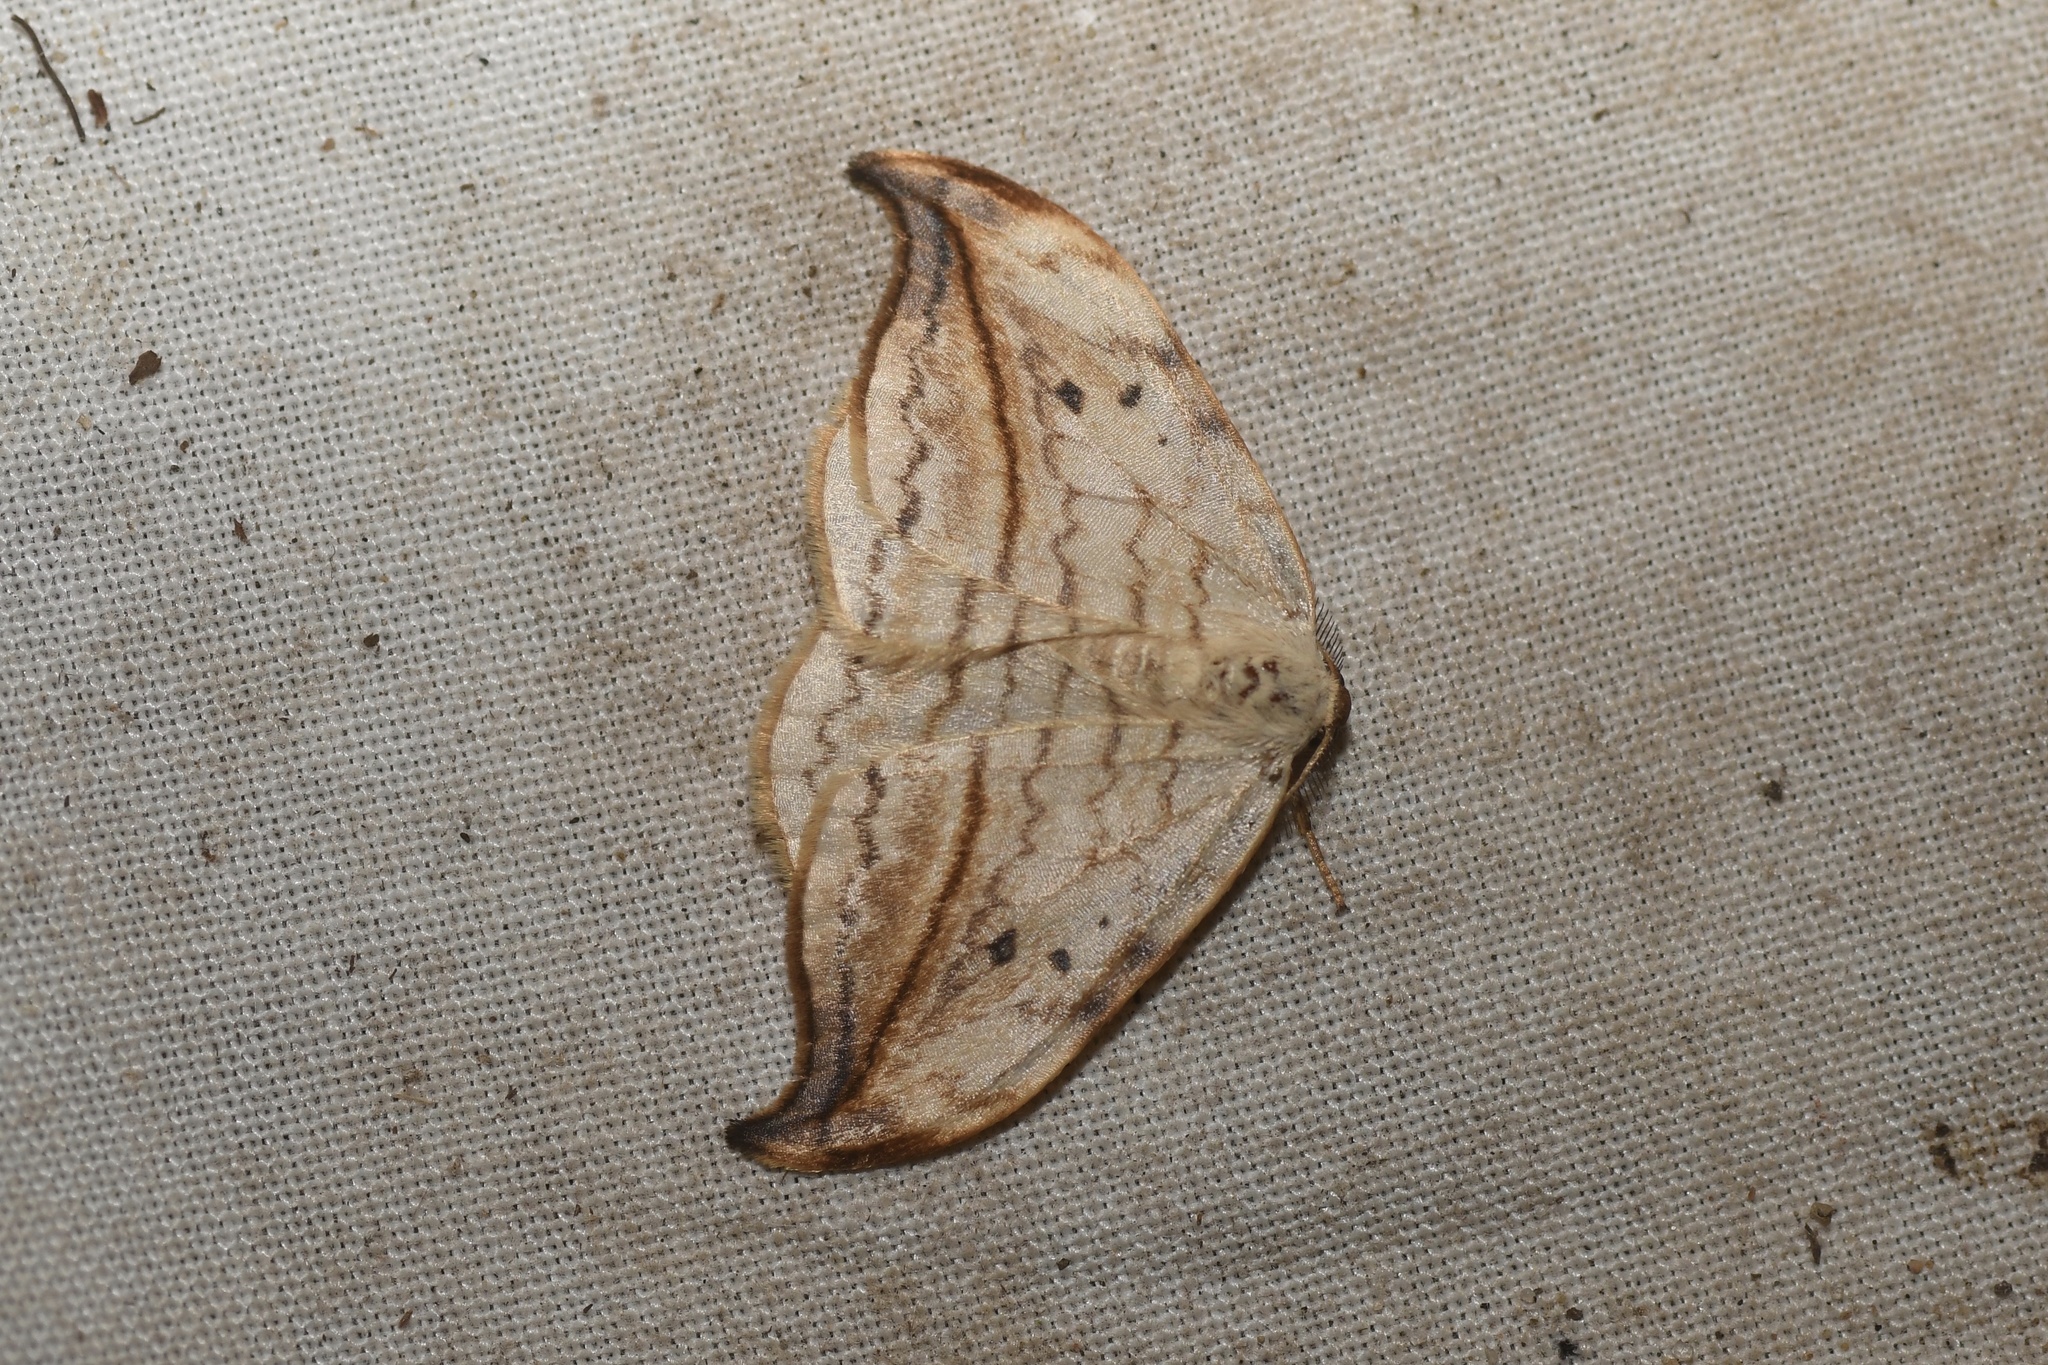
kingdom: Animalia
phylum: Arthropoda
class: Insecta
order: Lepidoptera
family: Drepanidae
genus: Drepana
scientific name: Drepana arcuata
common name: Arched hooktip moth
